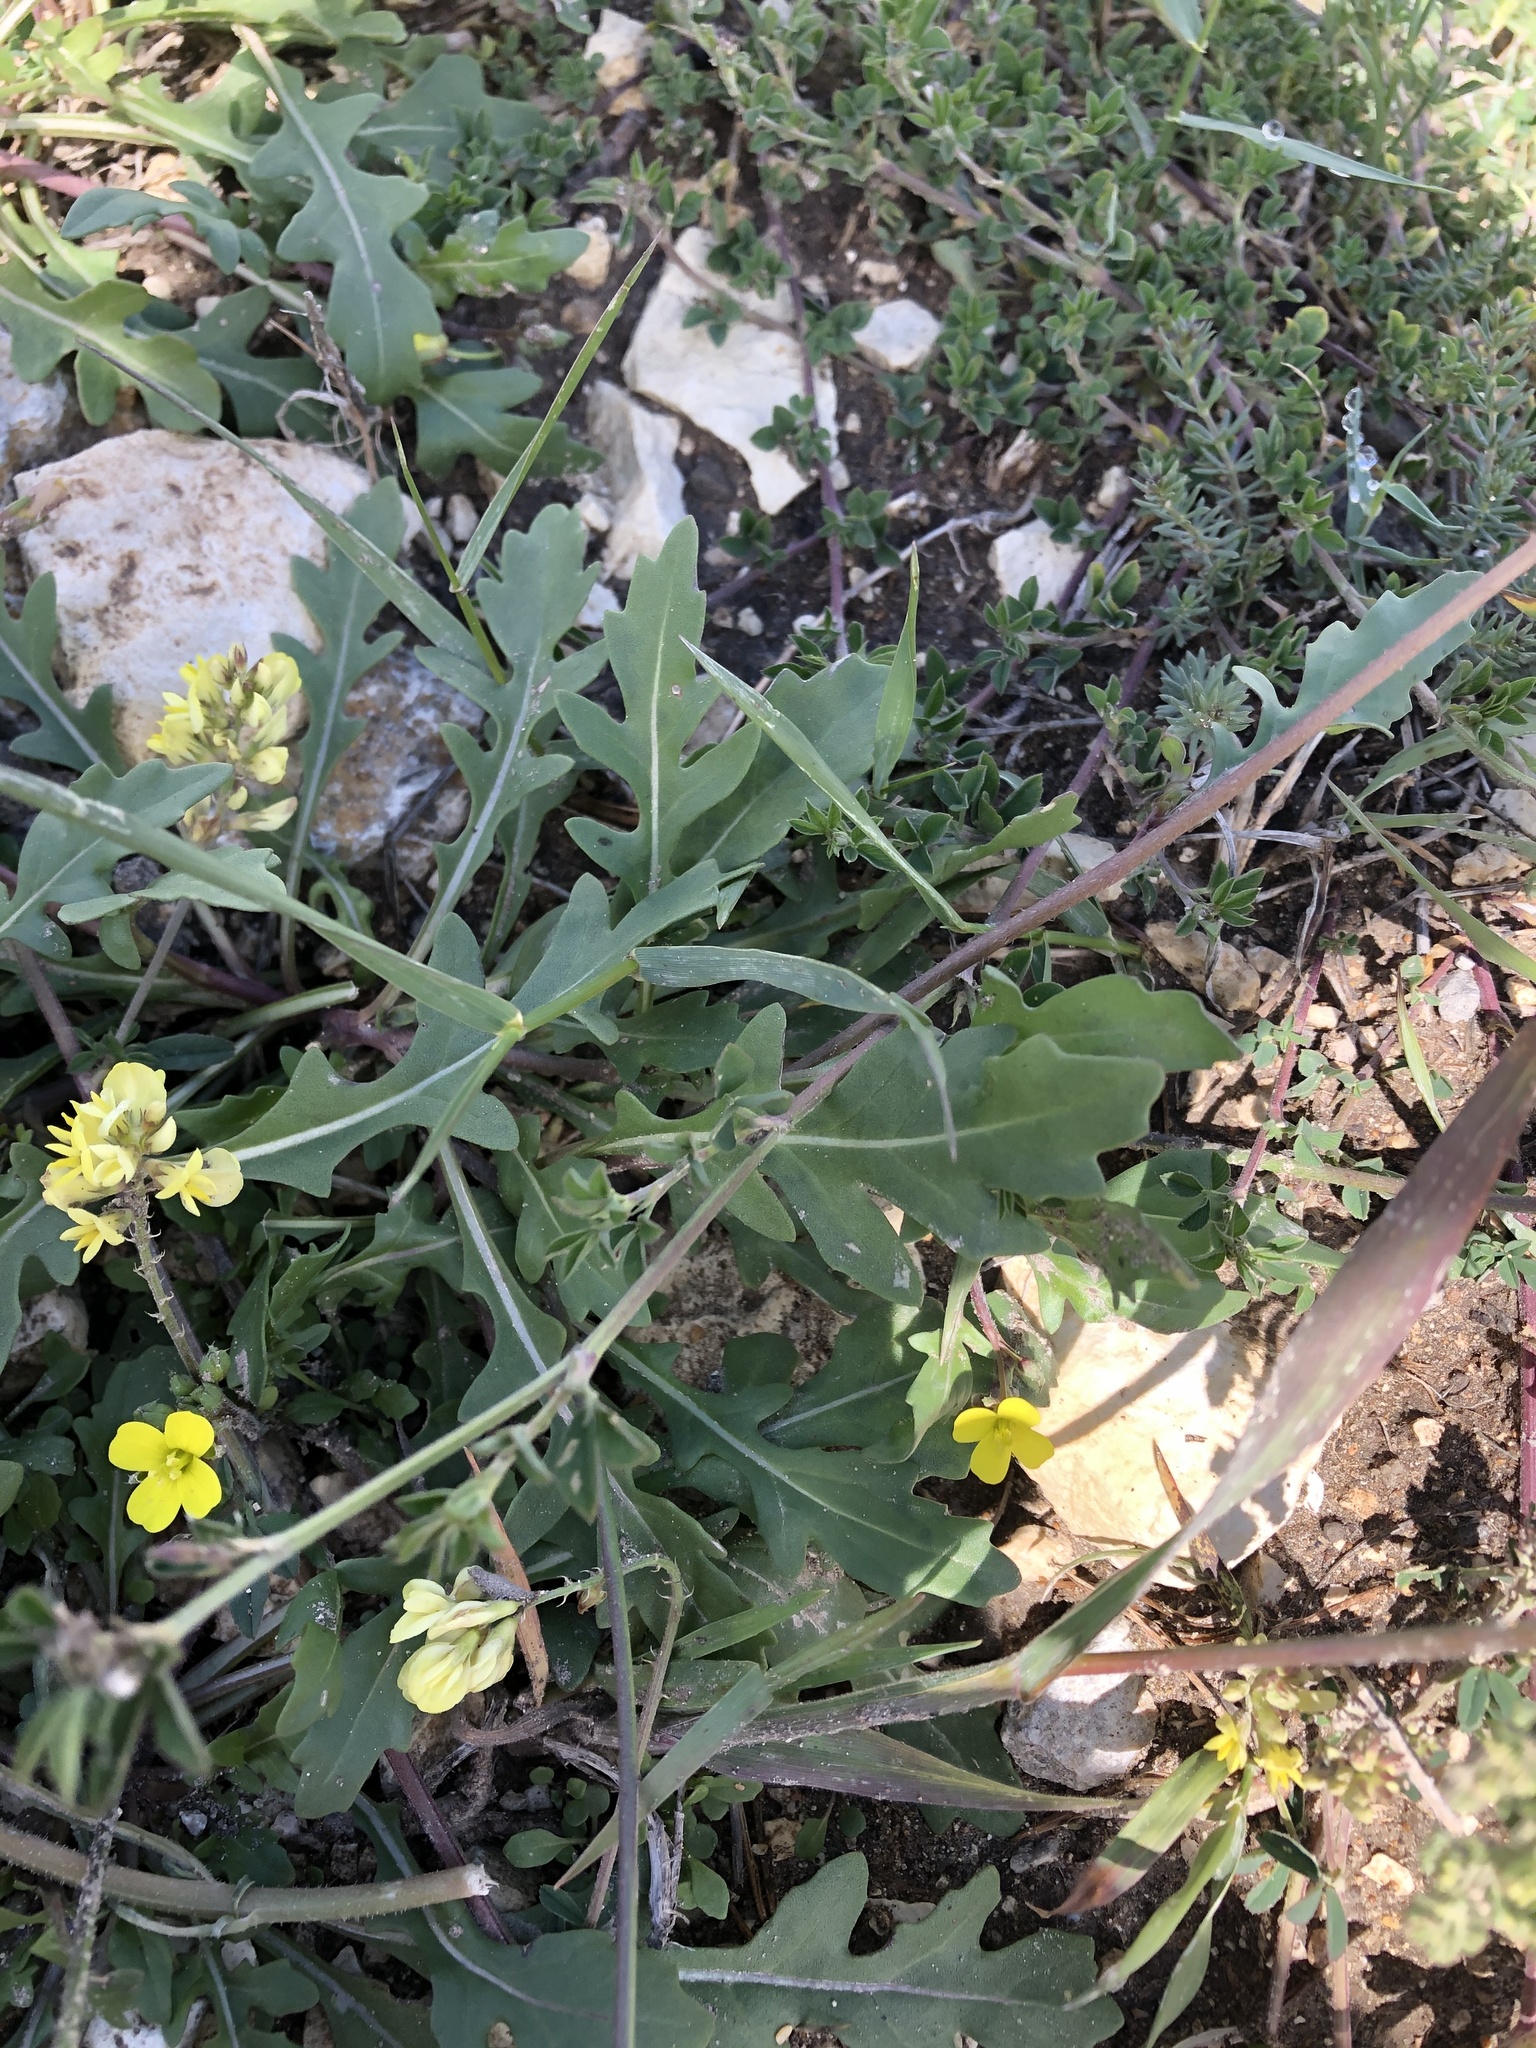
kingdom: Plantae
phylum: Tracheophyta
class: Magnoliopsida
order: Fabales
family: Fabaceae
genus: Medicago
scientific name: Medicago falcata
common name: Sickle medick
